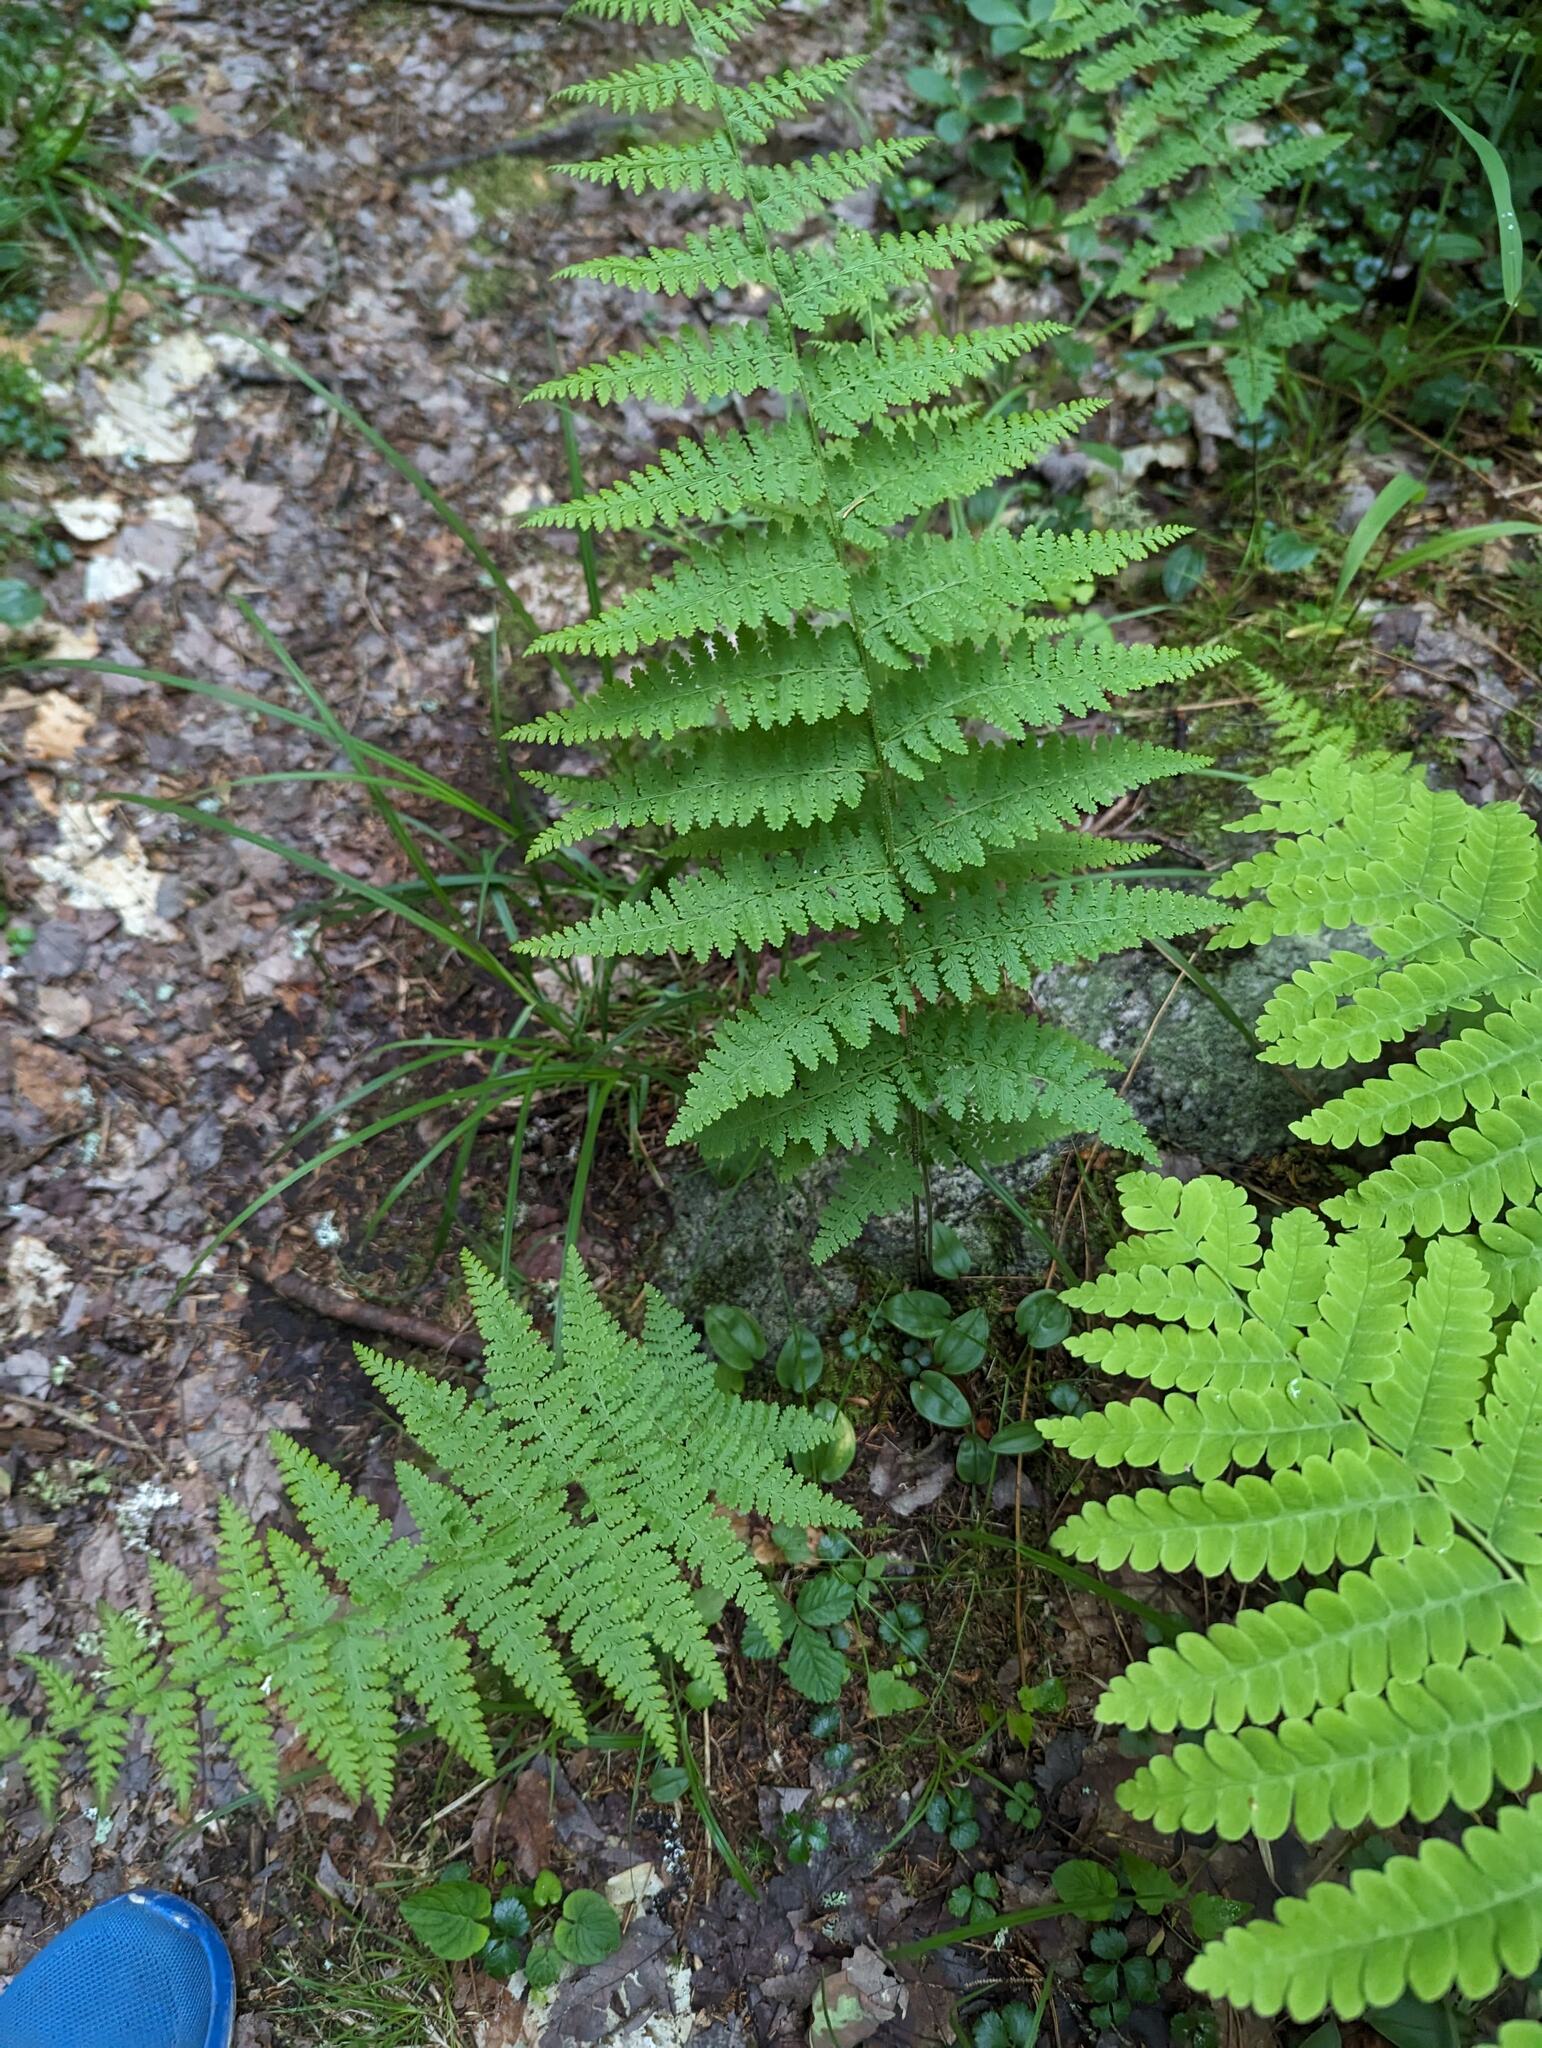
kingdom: Plantae
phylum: Tracheophyta
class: Polypodiopsida
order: Polypodiales
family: Dennstaedtiaceae
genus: Sitobolium
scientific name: Sitobolium punctilobum
